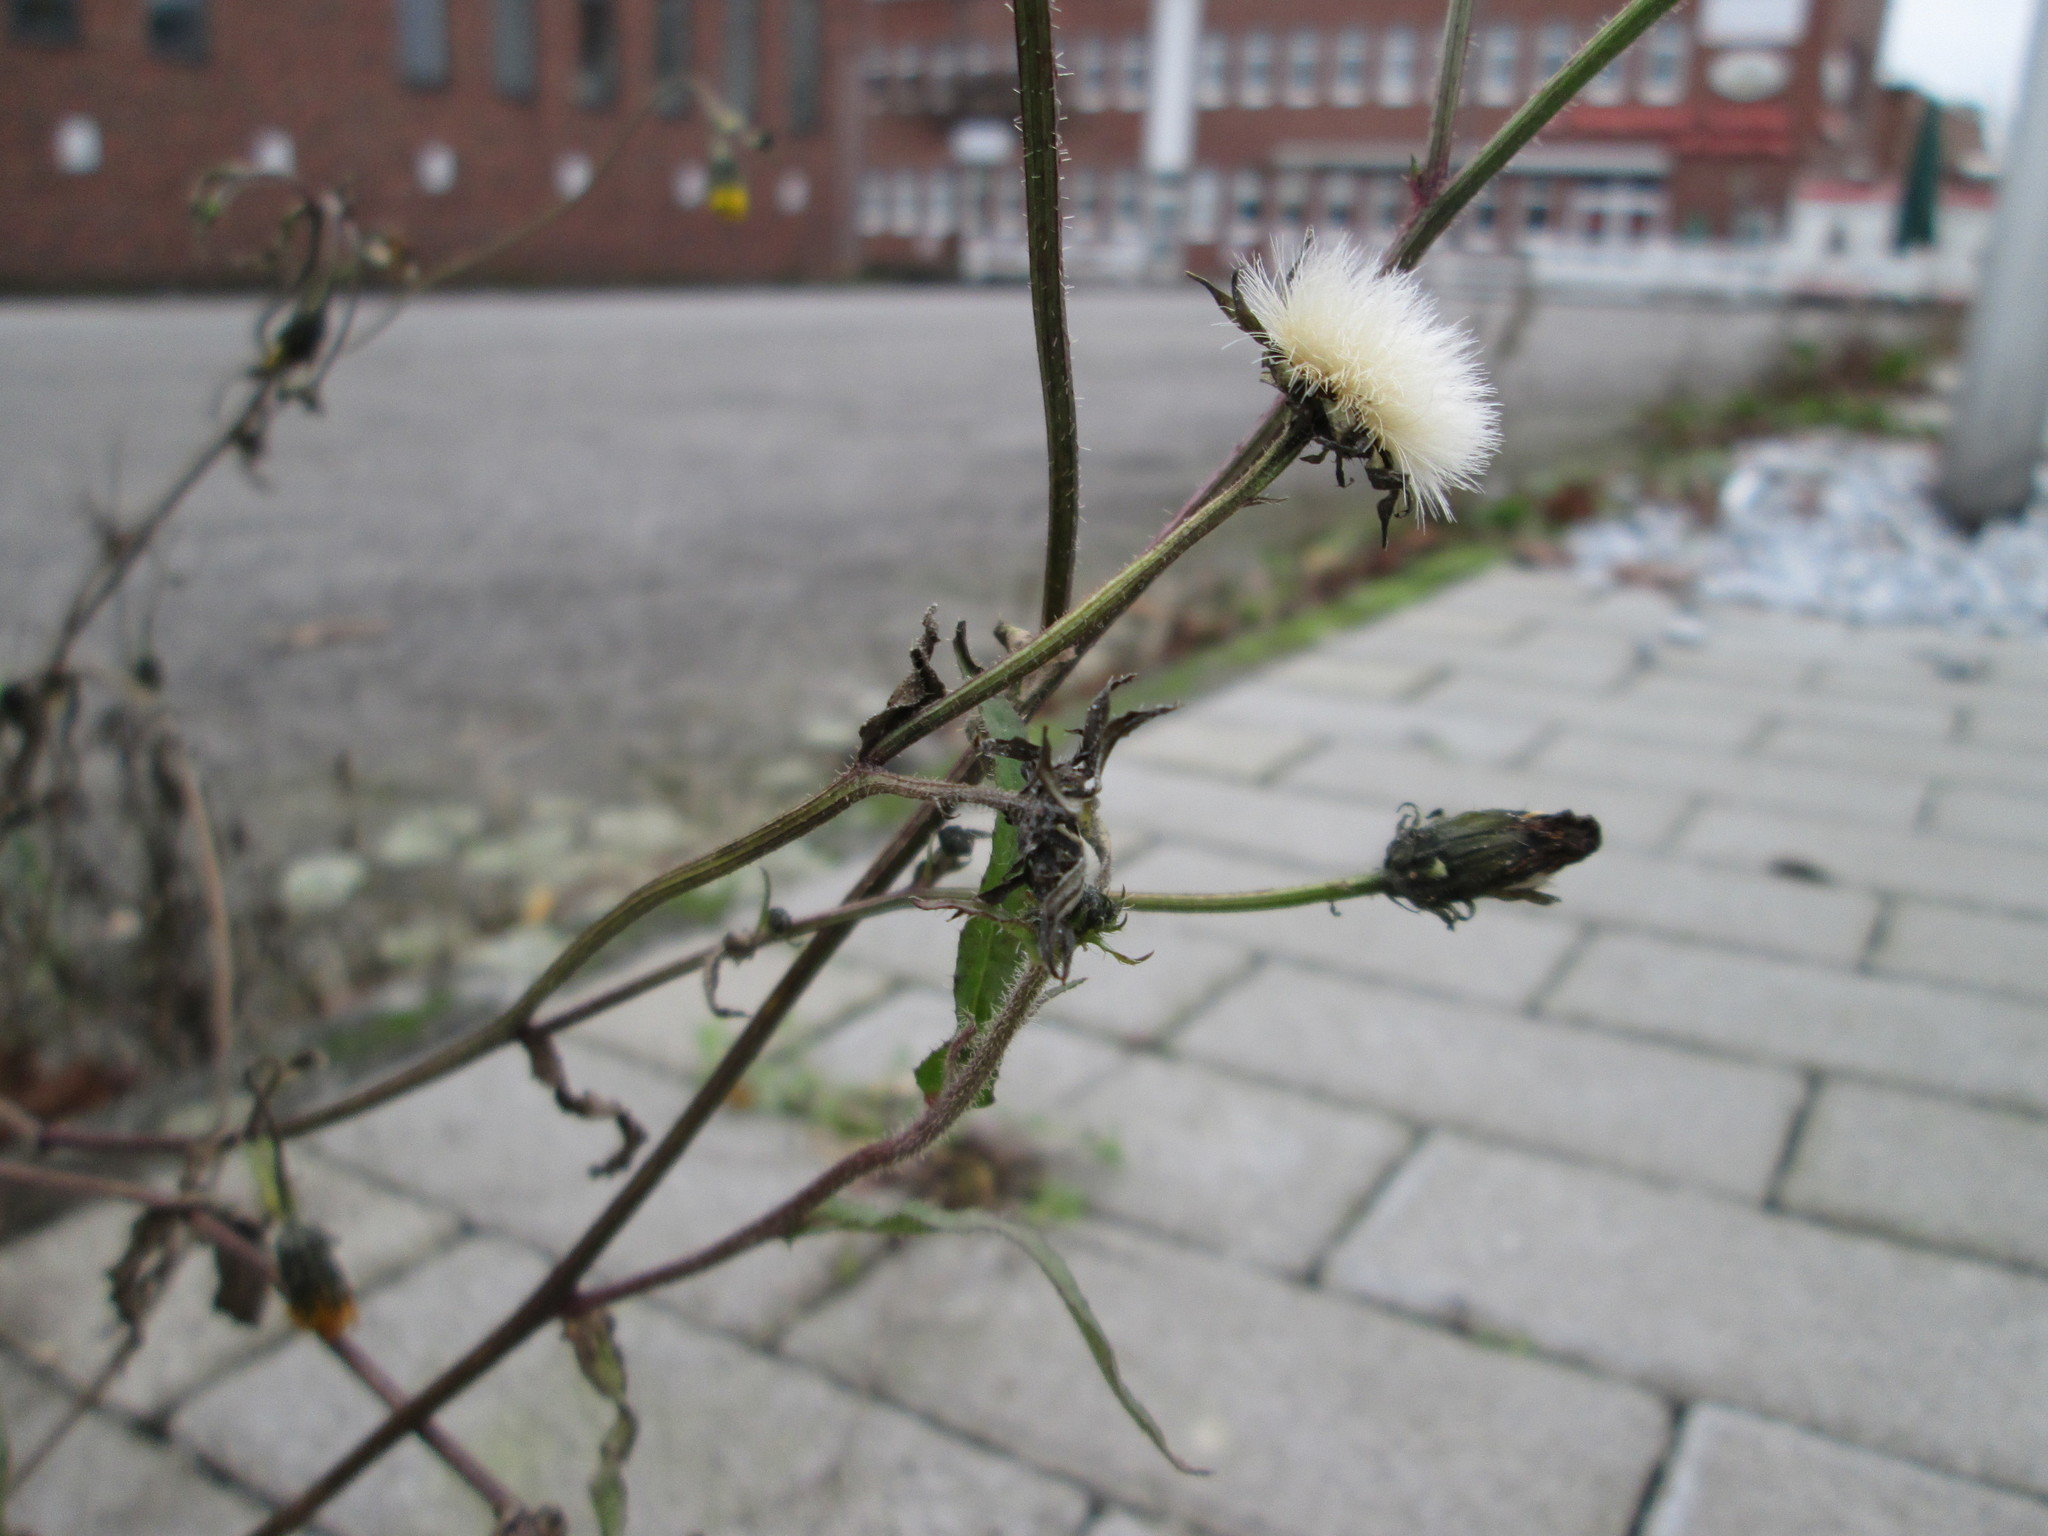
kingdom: Plantae
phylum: Tracheophyta
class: Magnoliopsida
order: Asterales
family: Asteraceae
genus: Picris
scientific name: Picris hieracioides
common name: Hawkweed oxtongue
